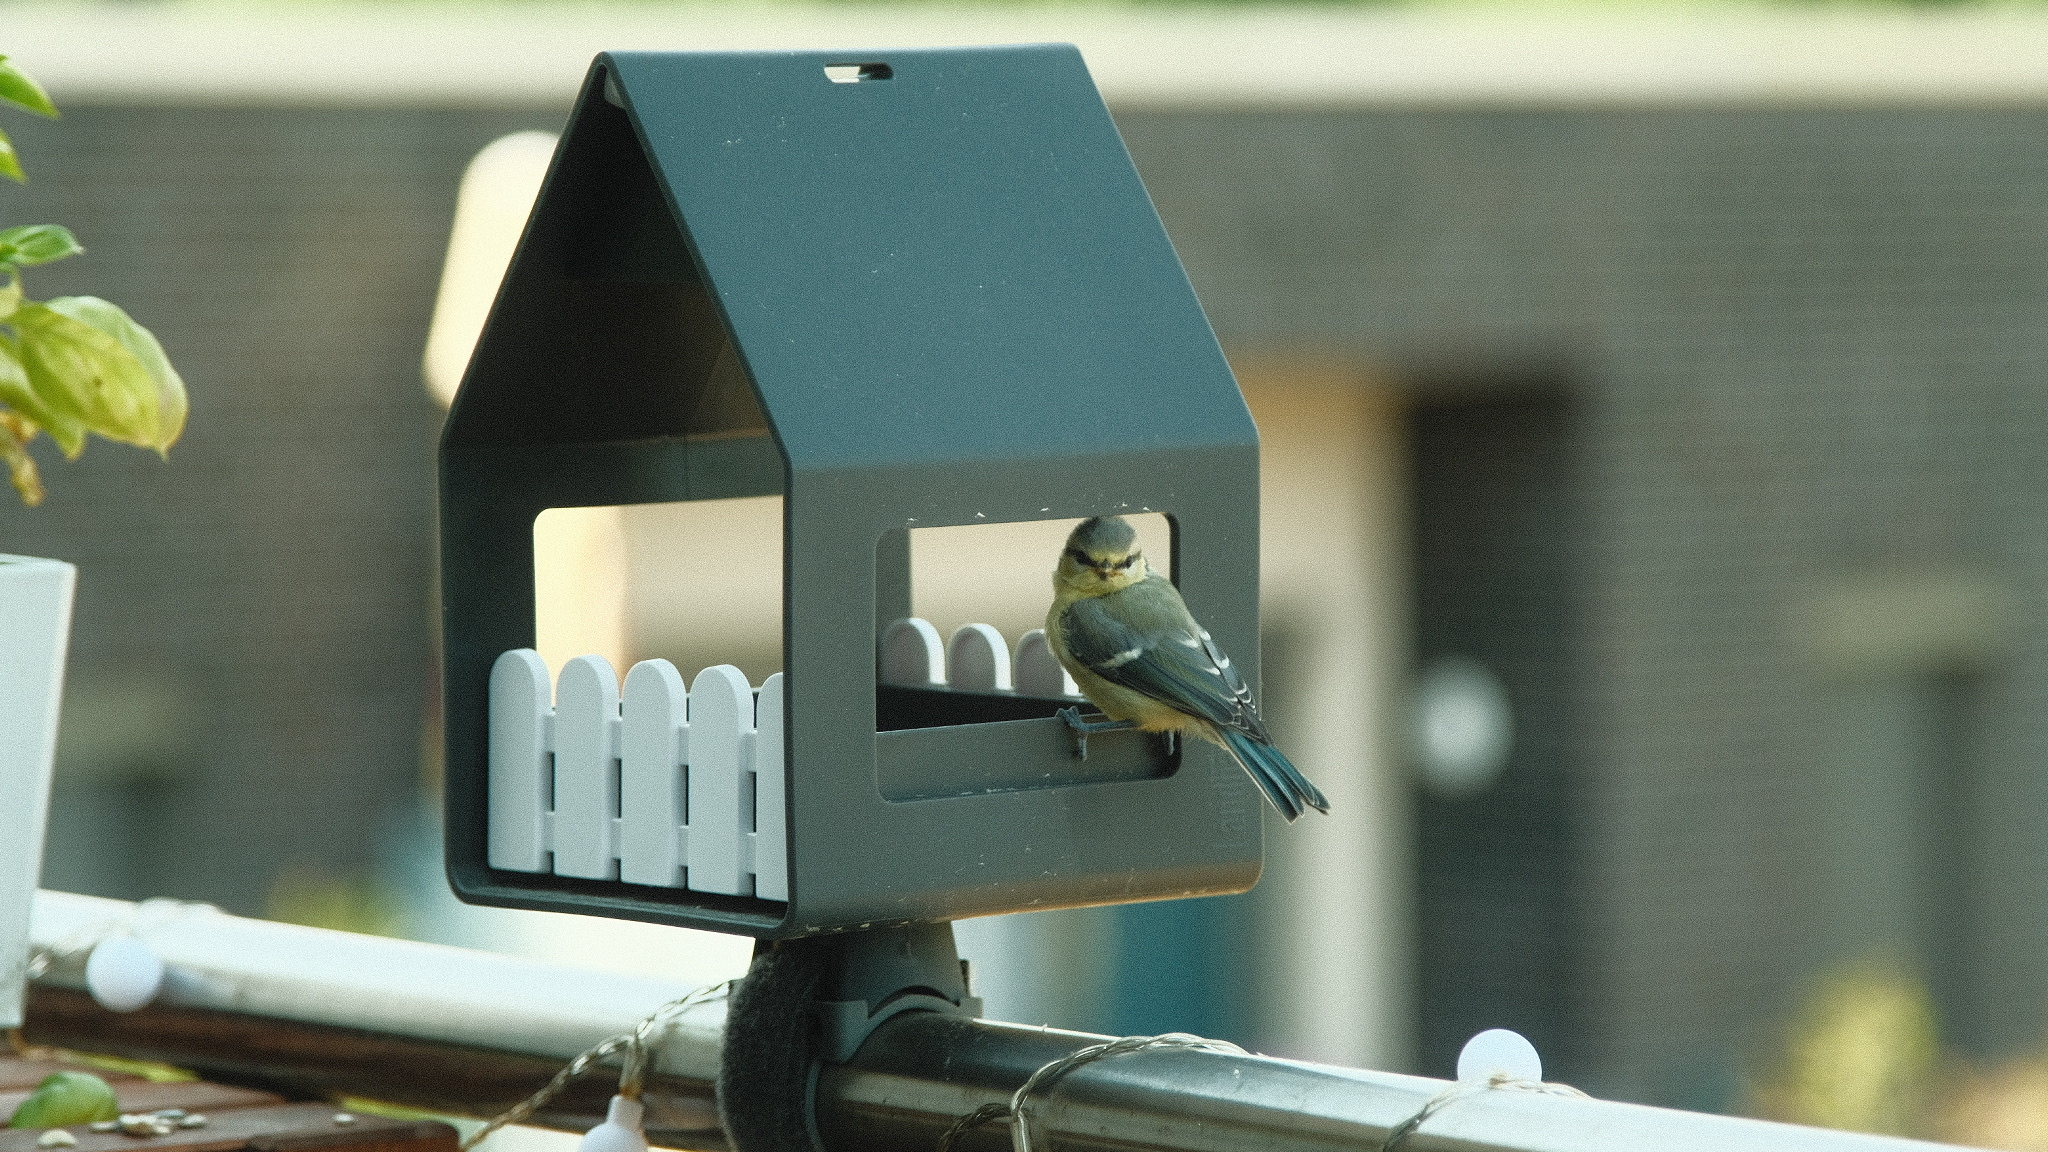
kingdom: Animalia
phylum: Chordata
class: Aves
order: Passeriformes
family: Paridae
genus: Cyanistes
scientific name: Cyanistes caeruleus
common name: Eurasian blue tit
